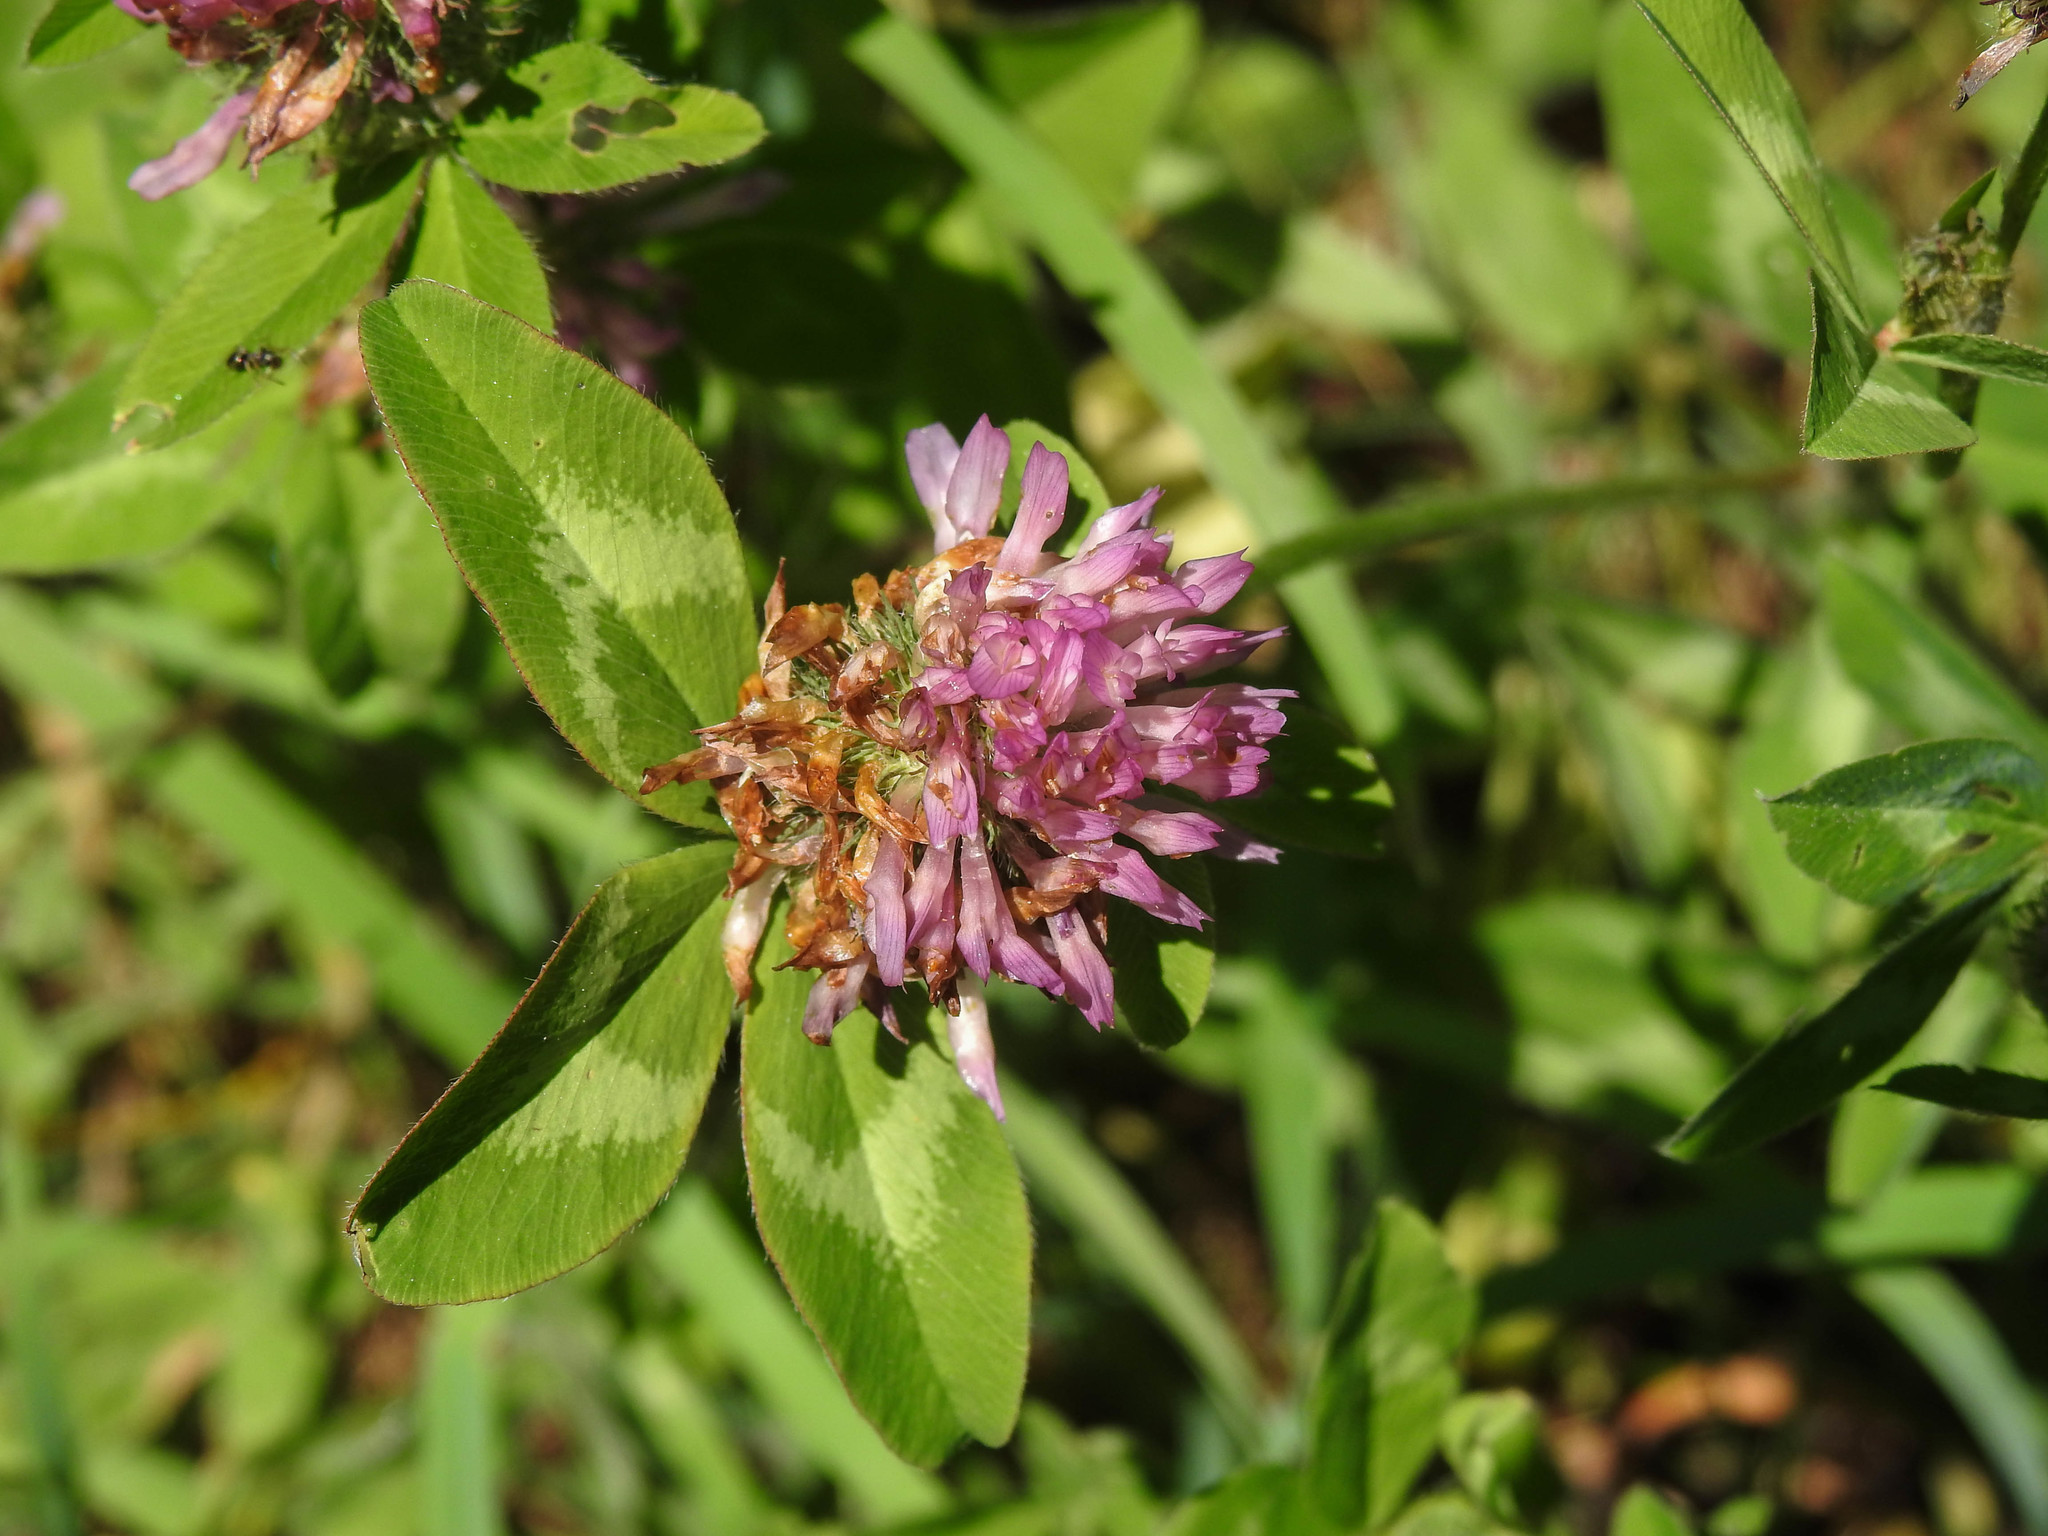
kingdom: Plantae
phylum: Tracheophyta
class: Magnoliopsida
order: Fabales
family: Fabaceae
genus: Trifolium
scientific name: Trifolium pratense
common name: Red clover
